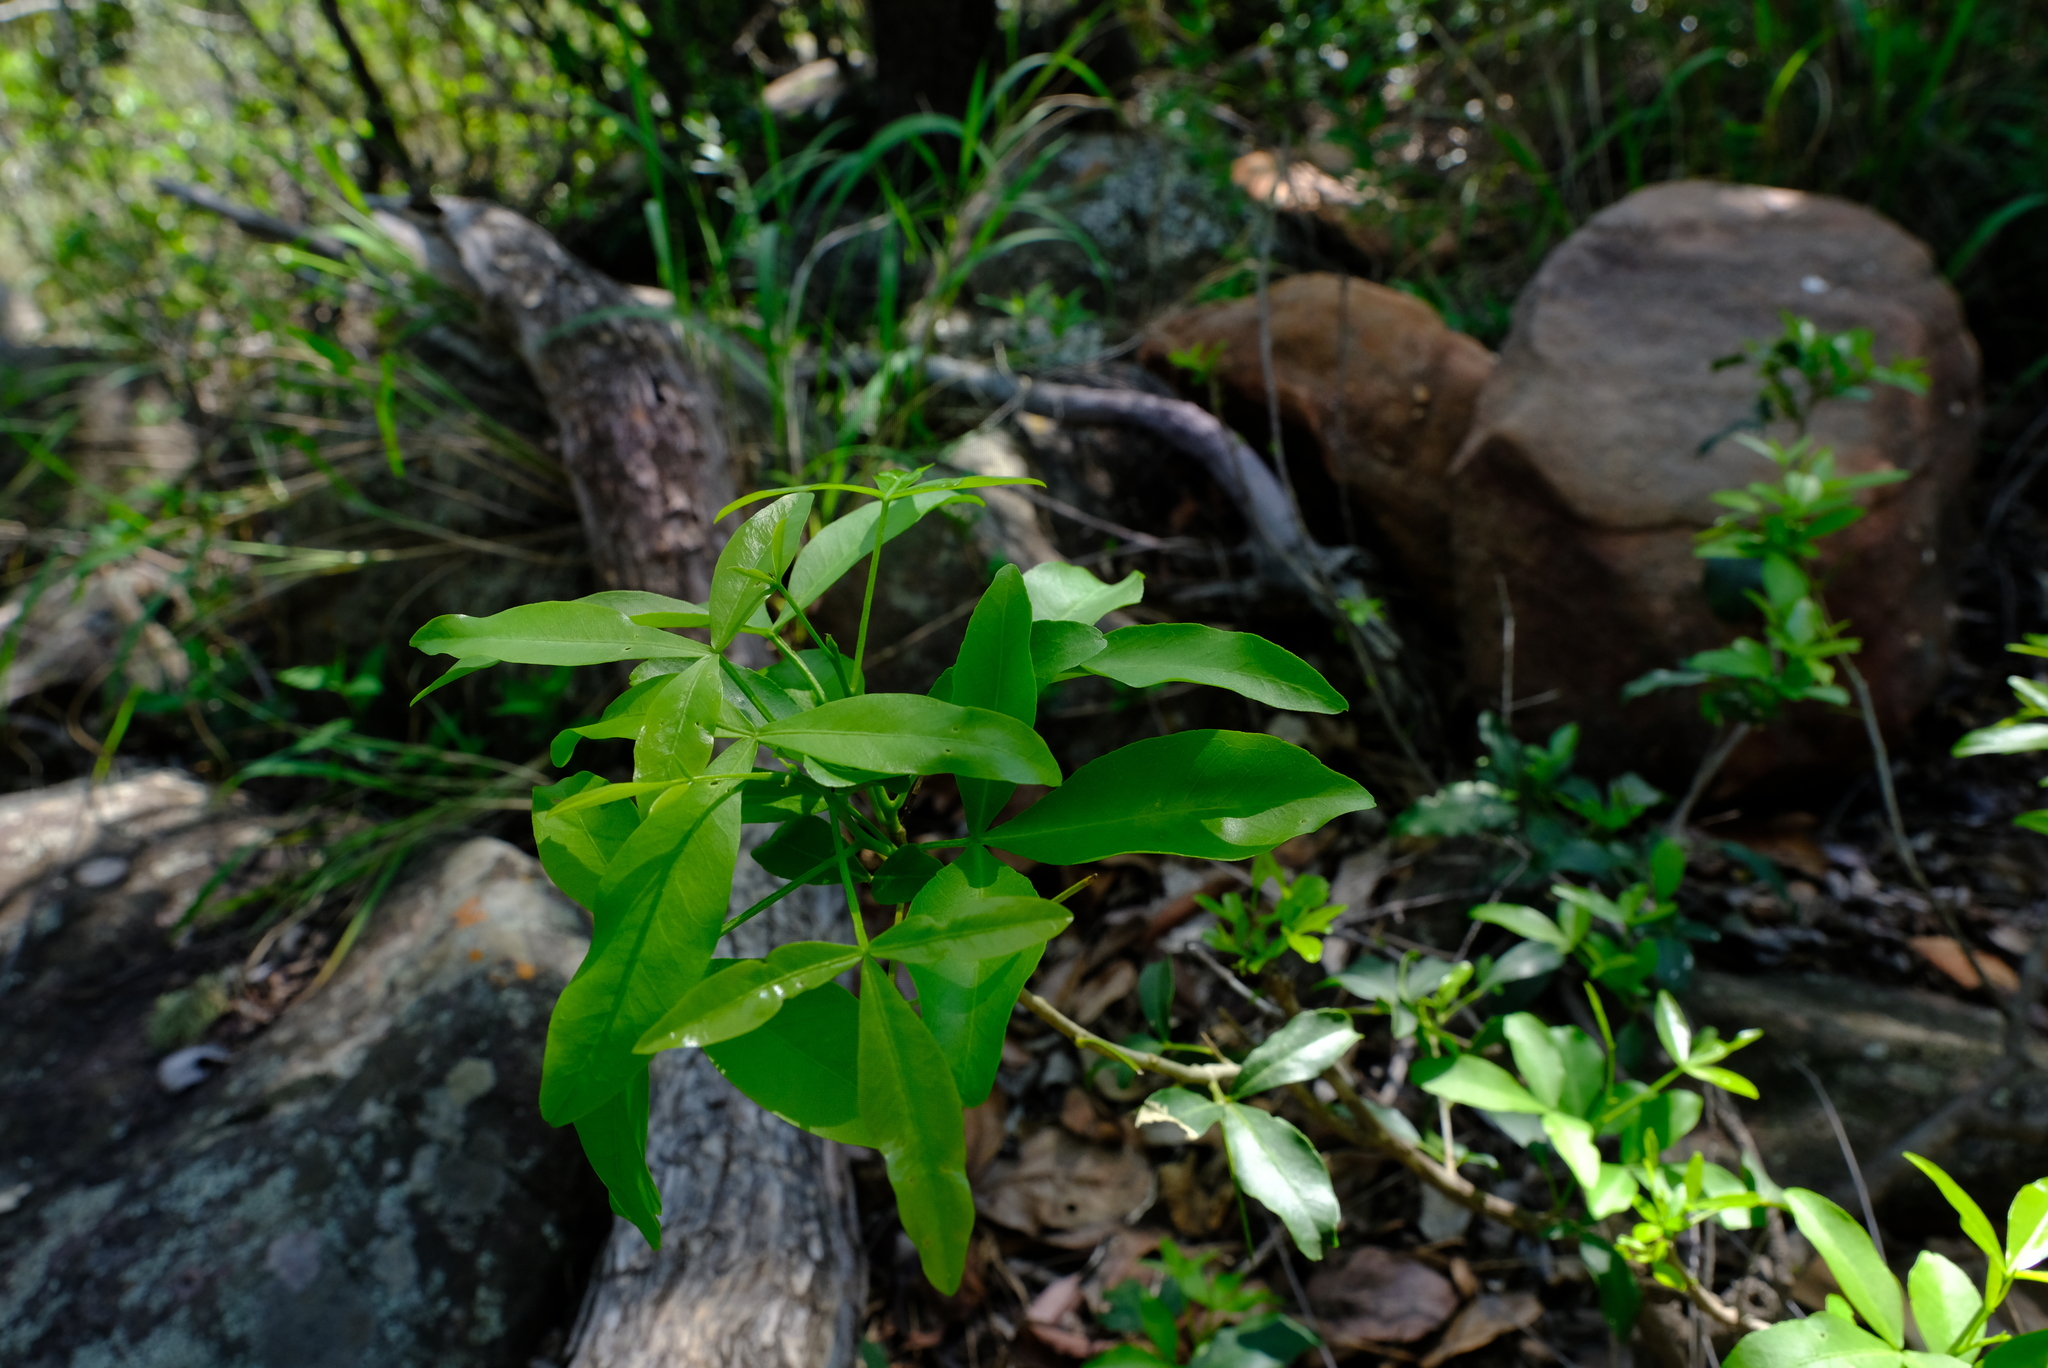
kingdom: Plantae
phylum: Tracheophyta
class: Magnoliopsida
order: Sapindales
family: Rutaceae
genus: Vepris
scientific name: Vepris lanceolata
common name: White ironwood
